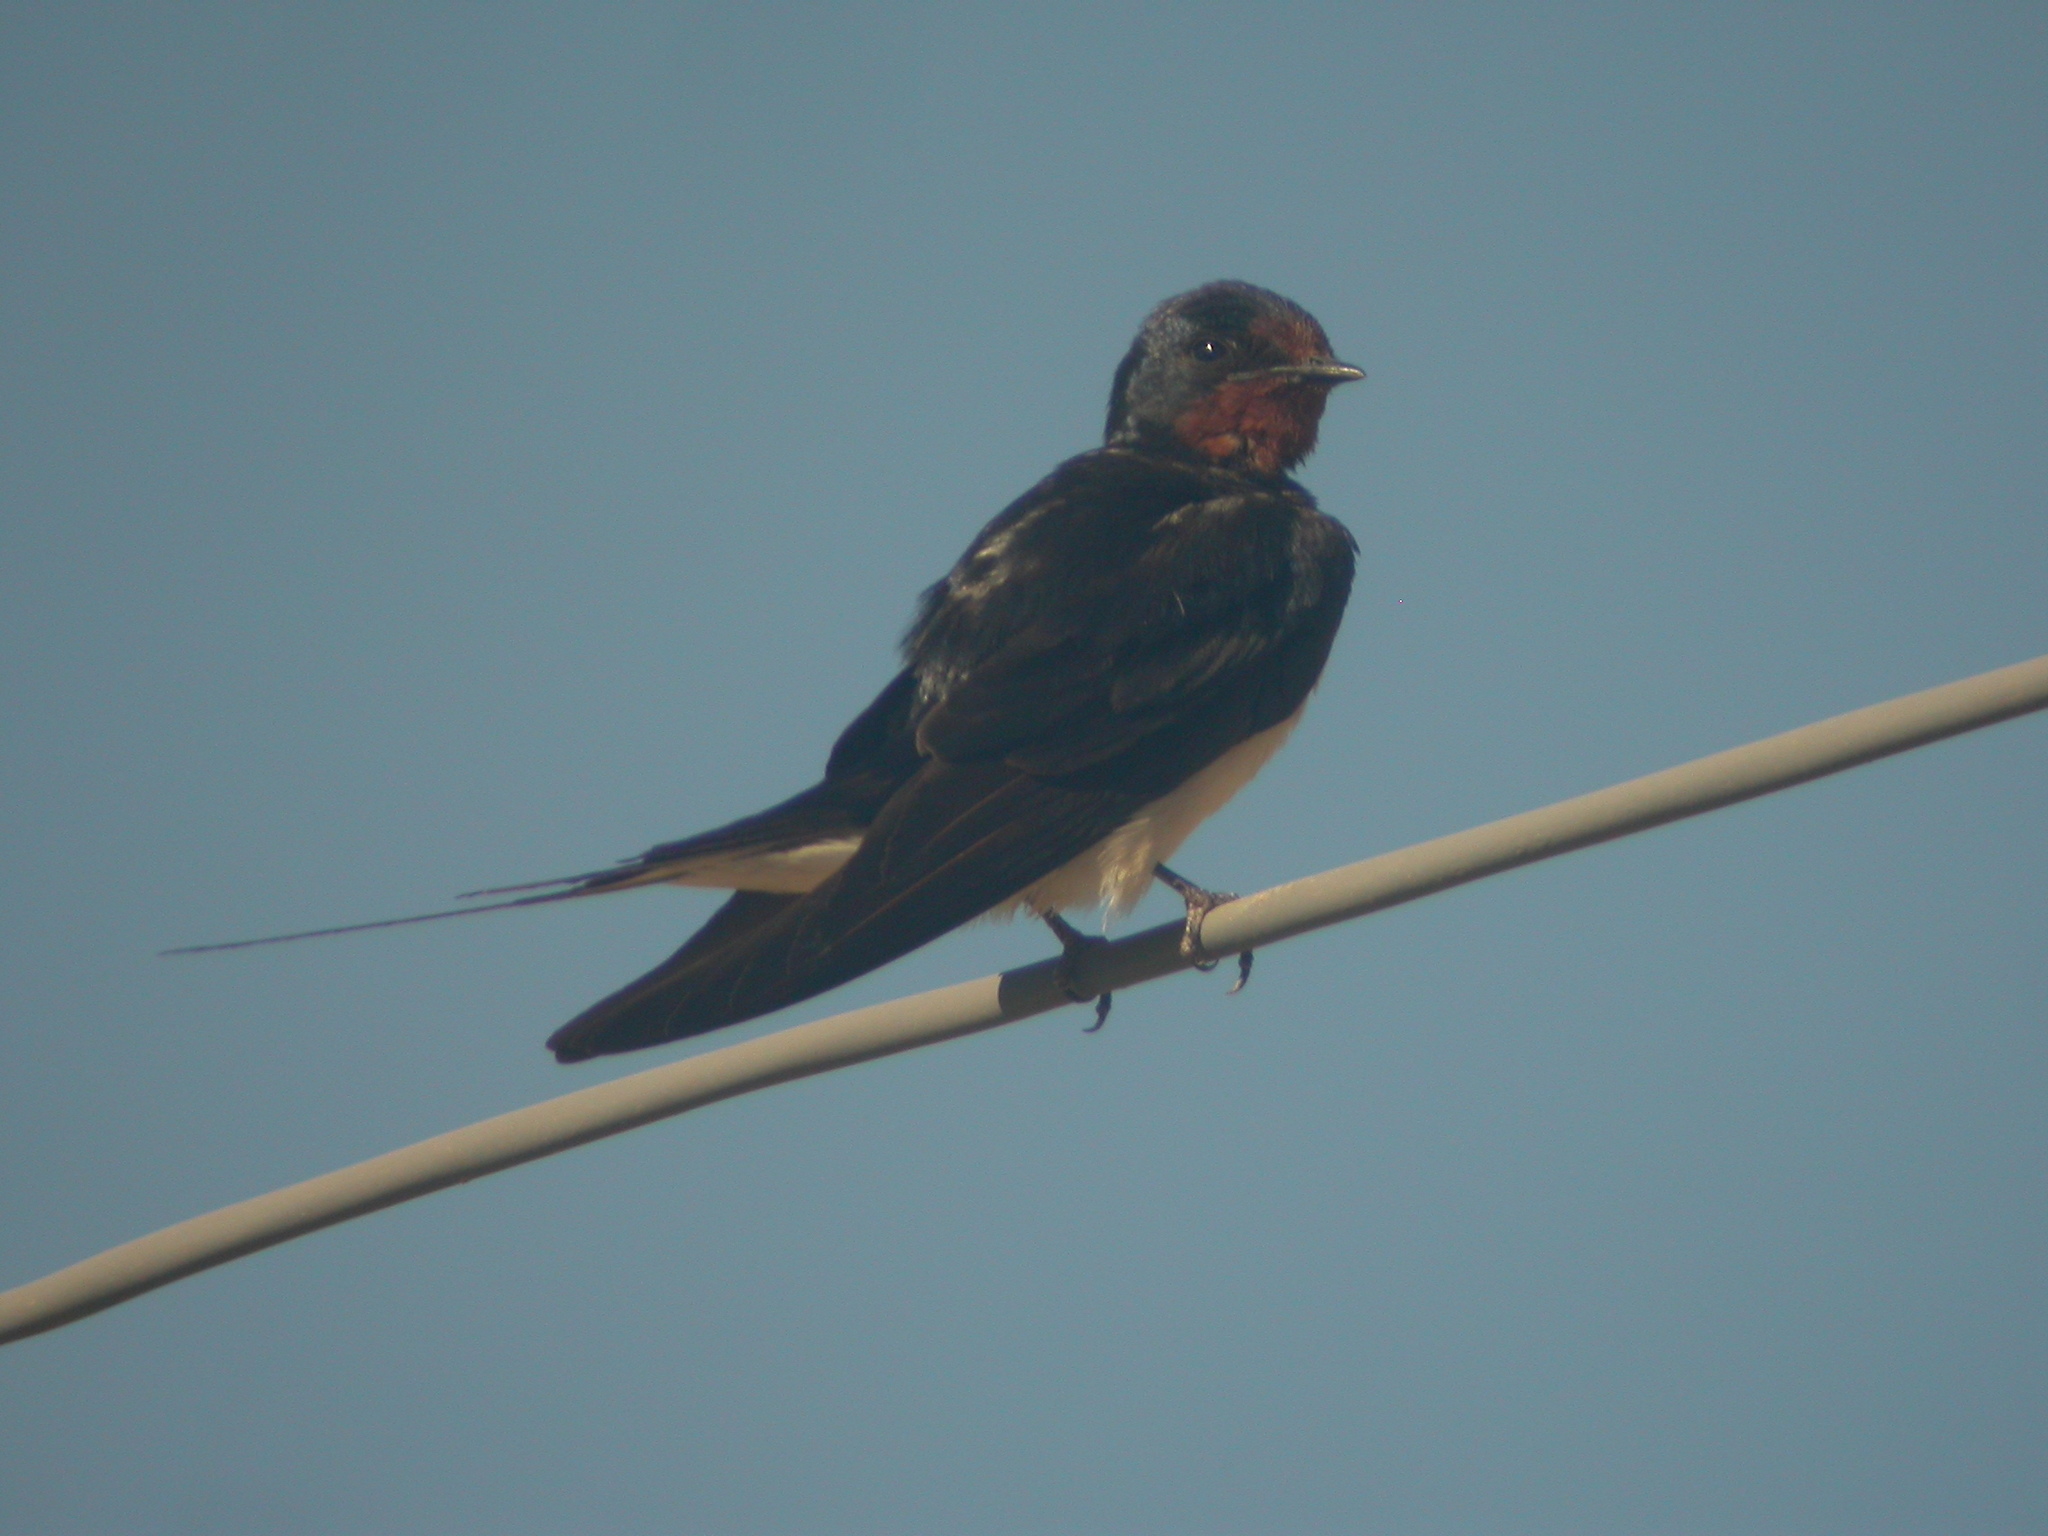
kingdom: Animalia
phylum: Chordata
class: Aves
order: Passeriformes
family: Hirundinidae
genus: Hirundo
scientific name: Hirundo rustica
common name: Barn swallow
